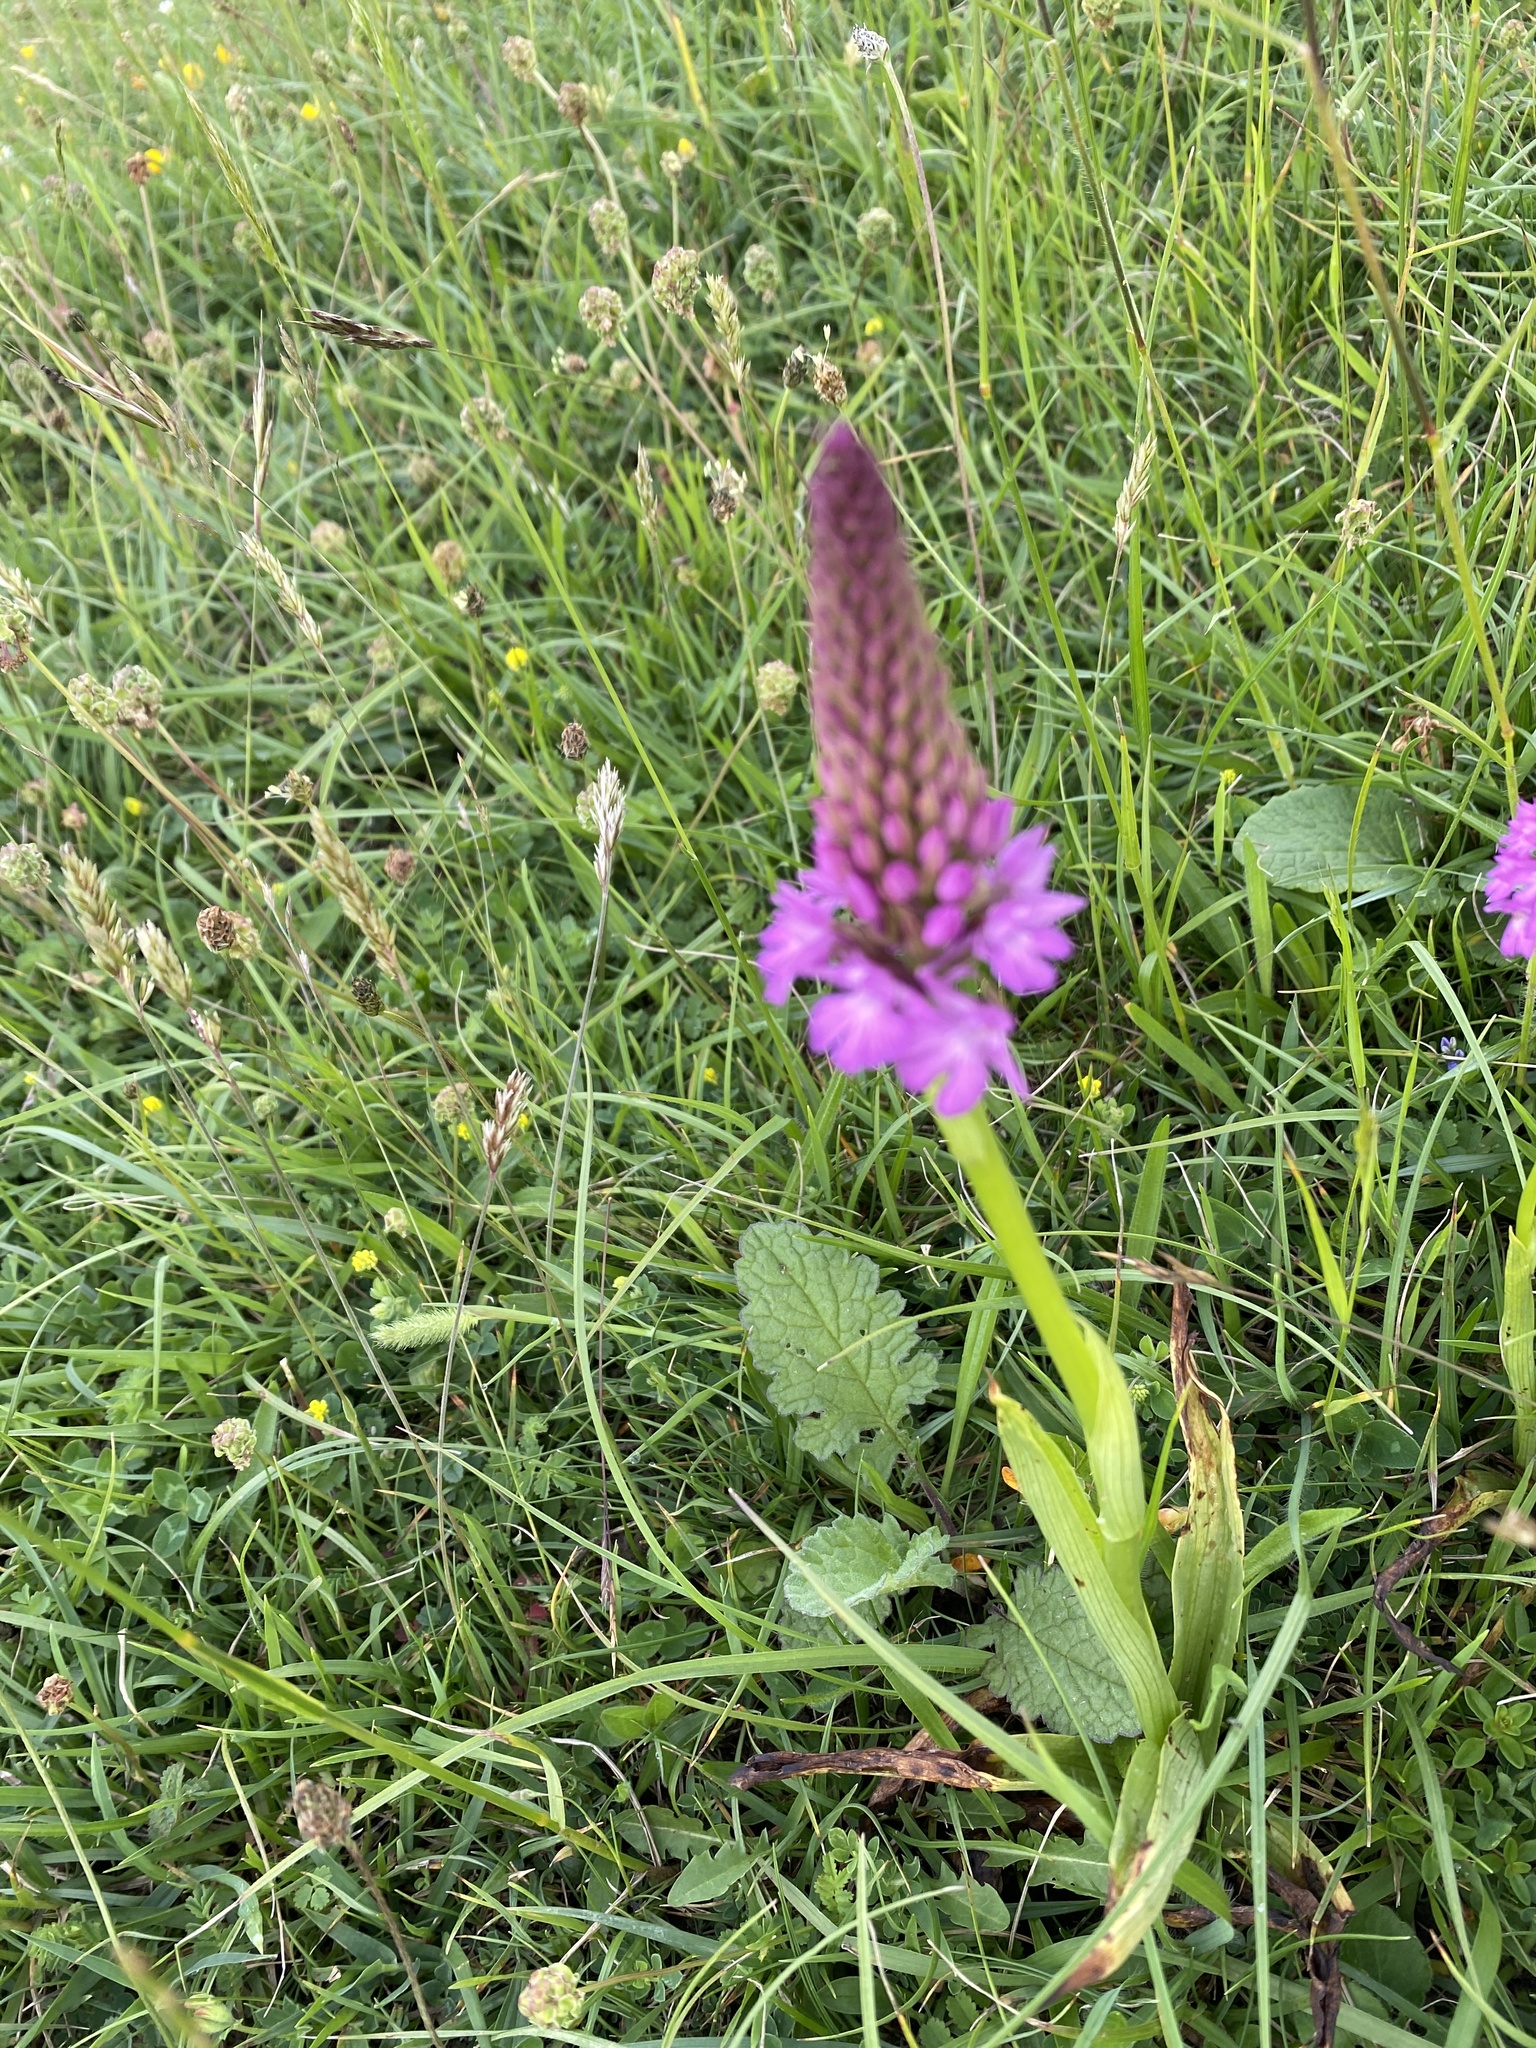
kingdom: Plantae
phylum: Tracheophyta
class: Liliopsida
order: Asparagales
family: Orchidaceae
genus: Anacamptis
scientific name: Anacamptis pyramidalis
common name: Pyramidal orchid
